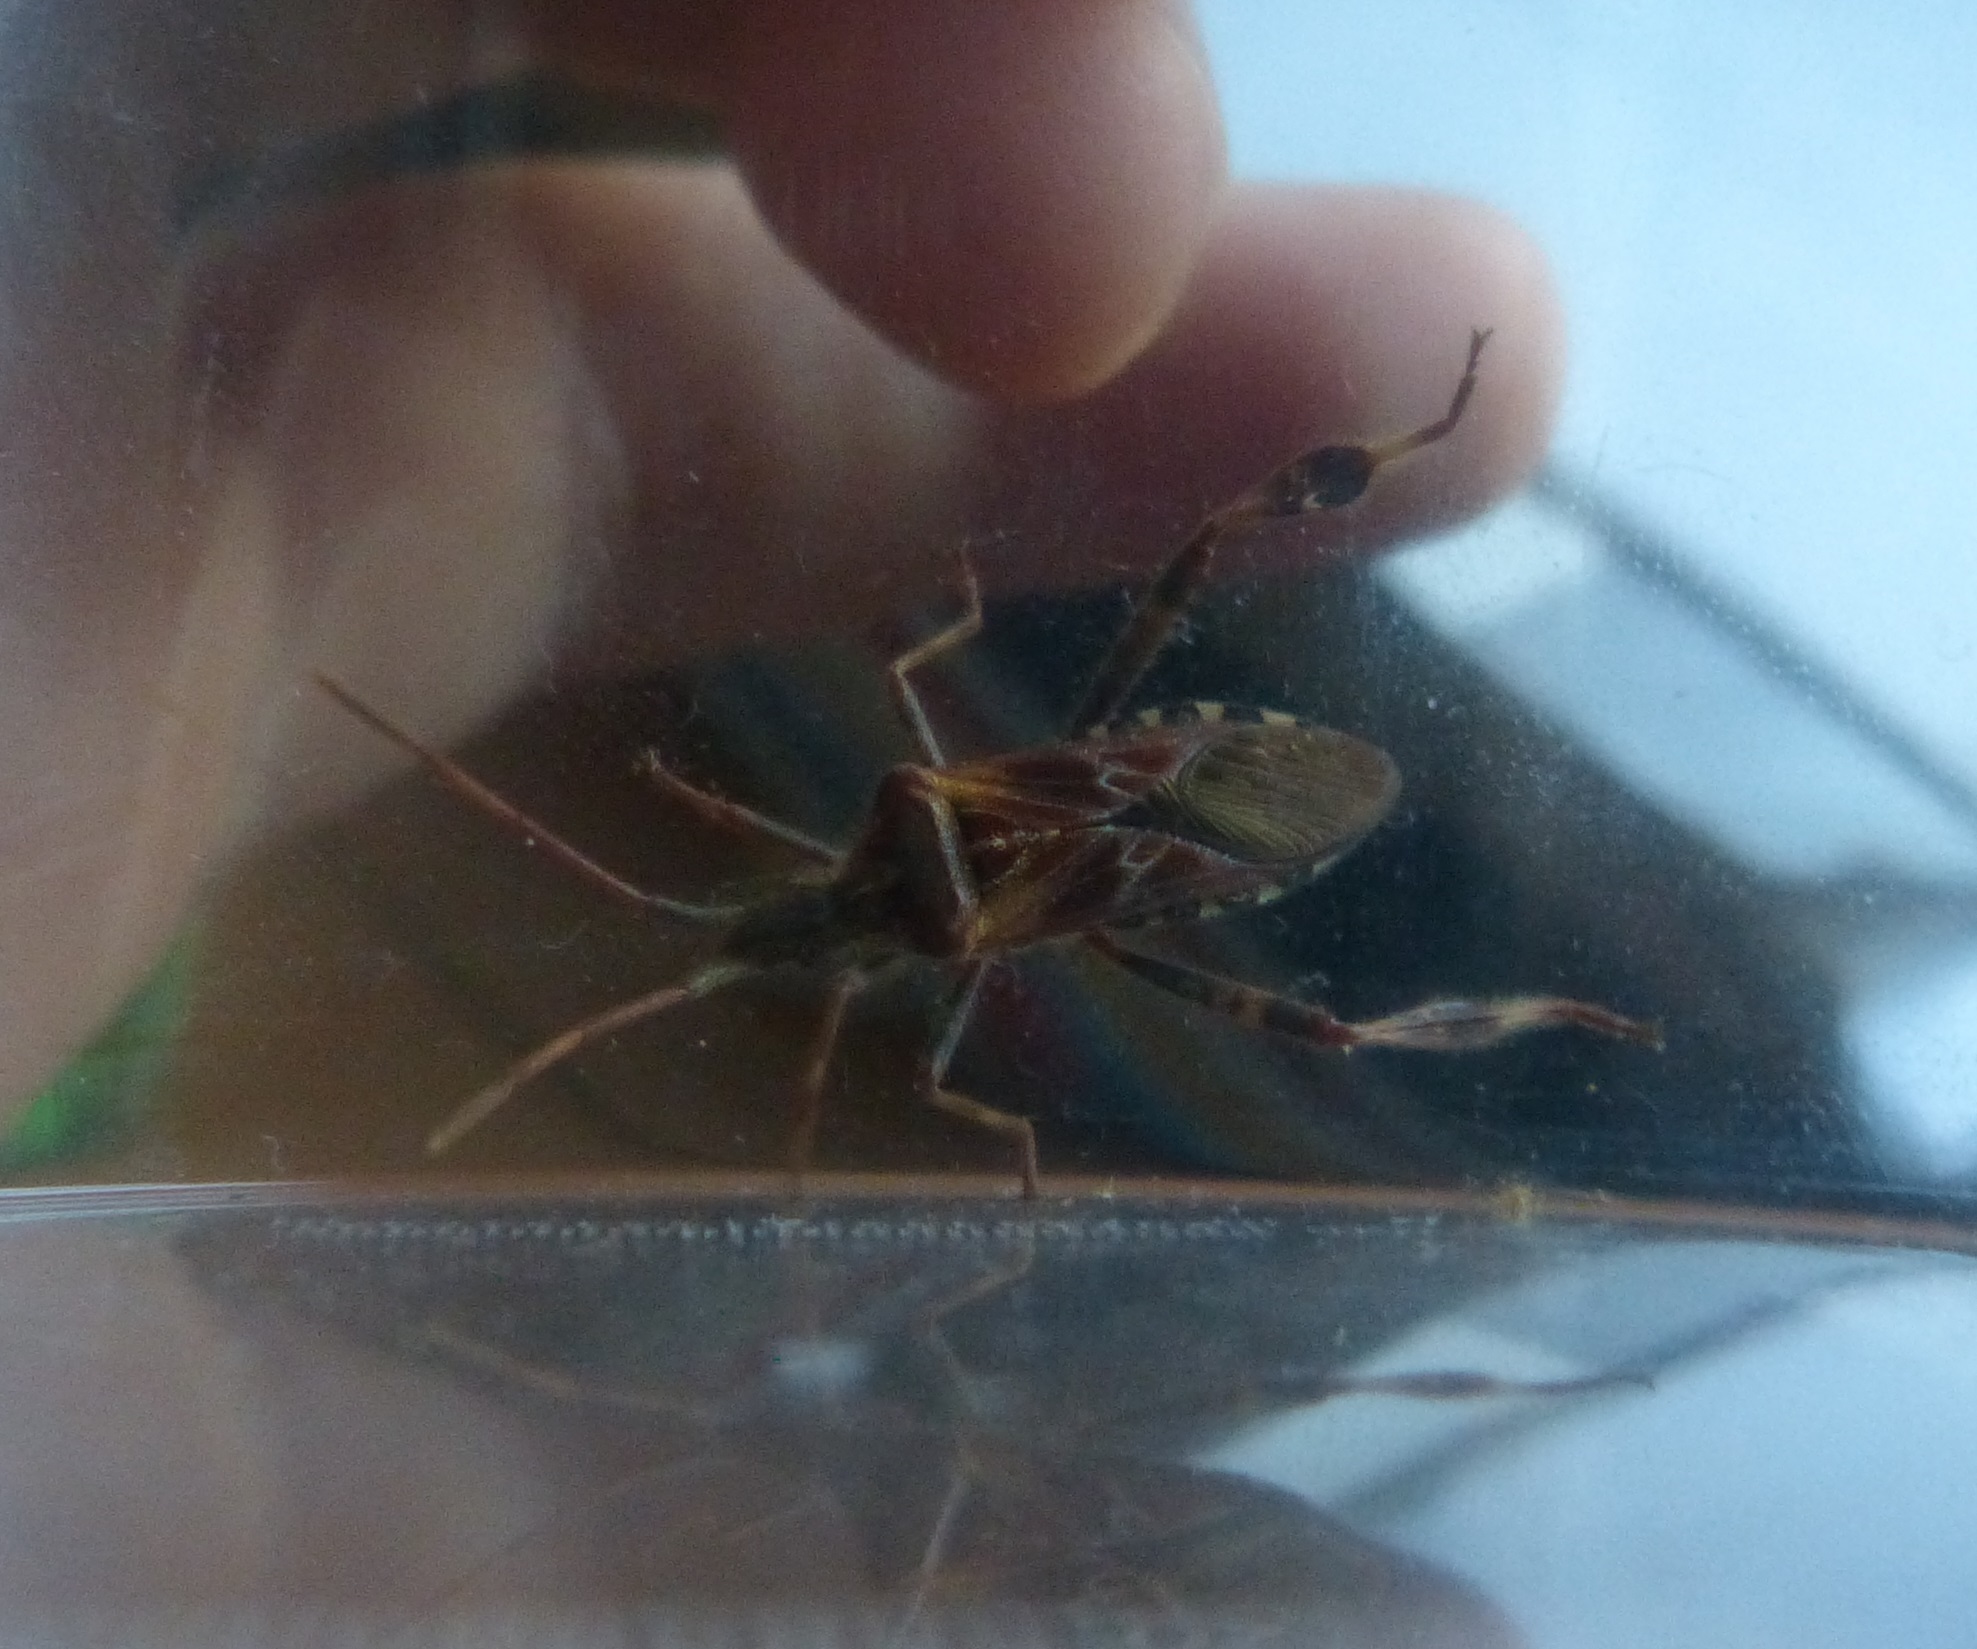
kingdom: Animalia
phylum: Arthropoda
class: Insecta
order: Hemiptera
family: Coreidae
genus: Leptoglossus
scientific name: Leptoglossus occidentalis
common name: Western conifer-seed bug
